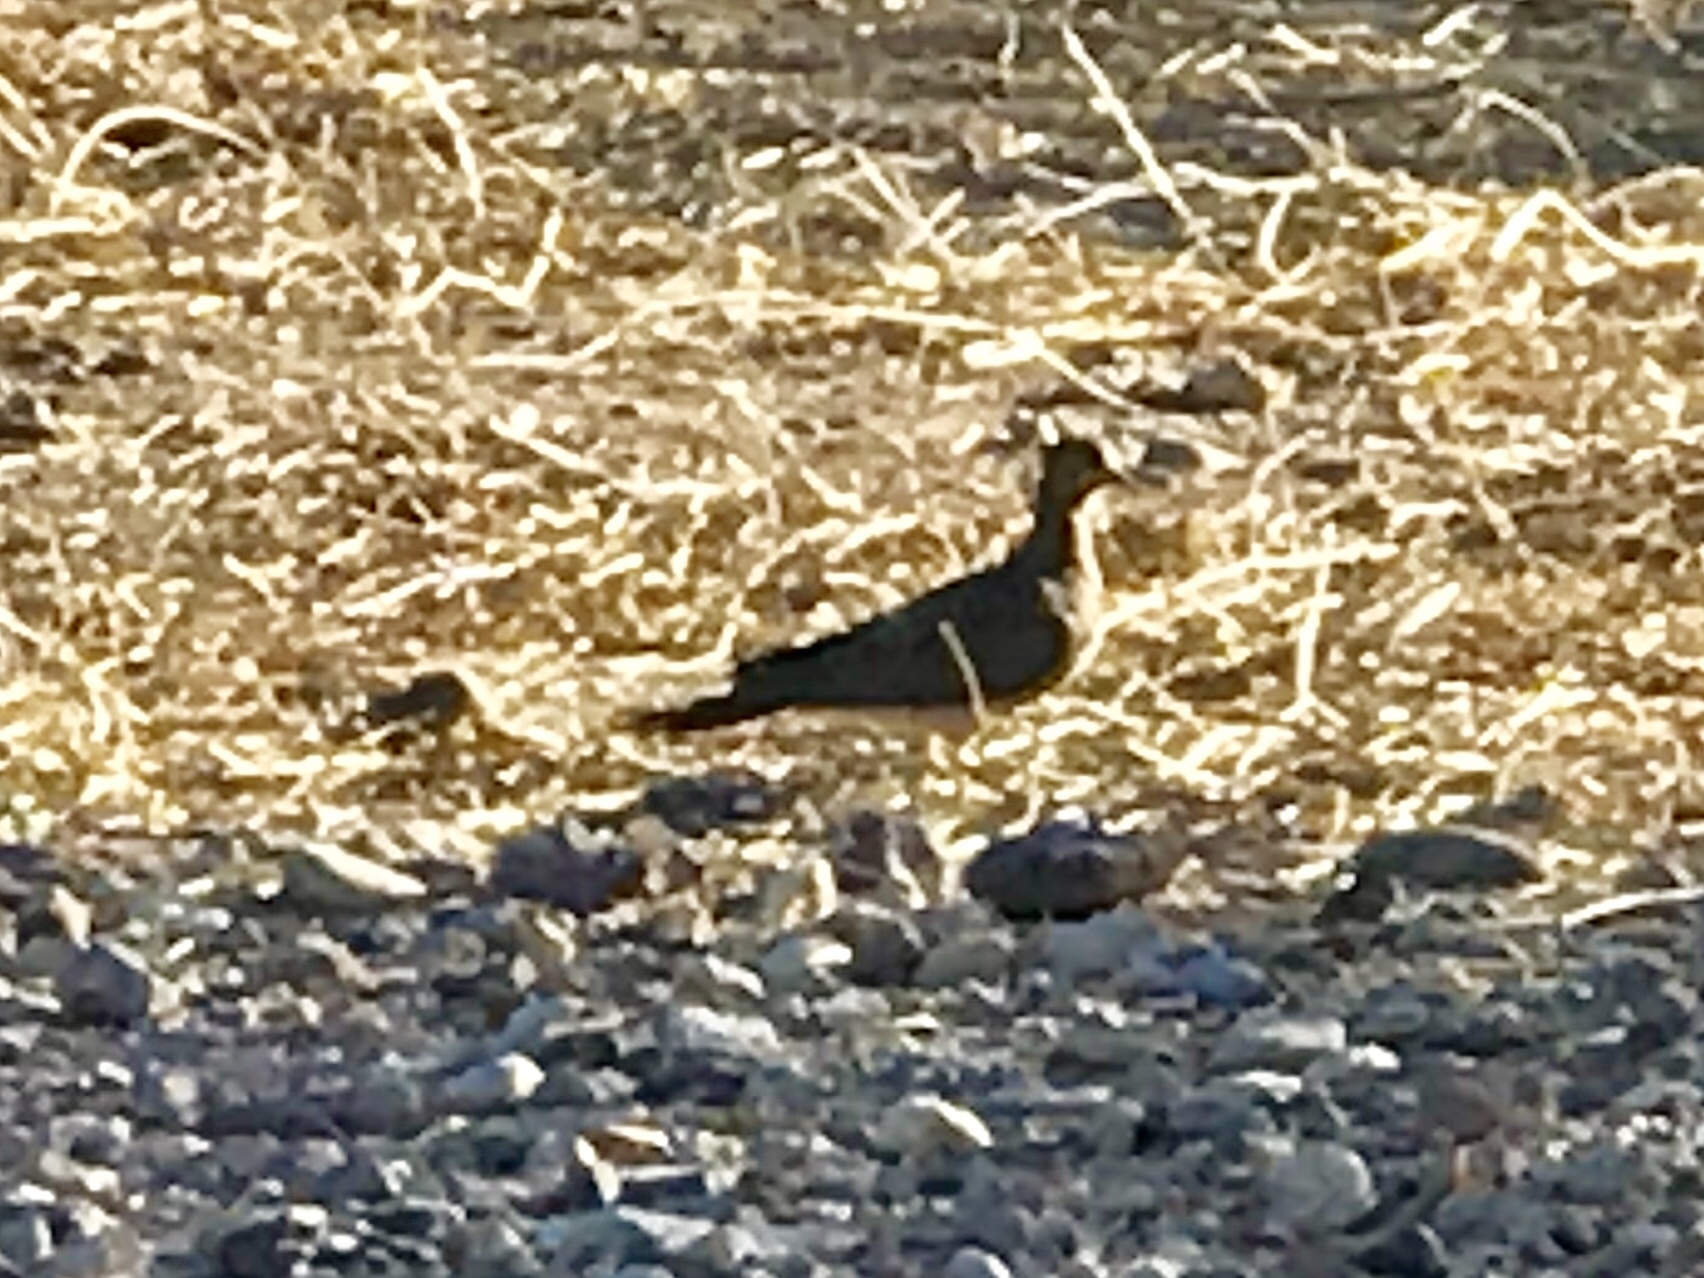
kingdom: Animalia
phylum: Chordata
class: Aves
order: Columbiformes
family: Columbidae
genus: Zenaida
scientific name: Zenaida macroura
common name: Mourning dove
